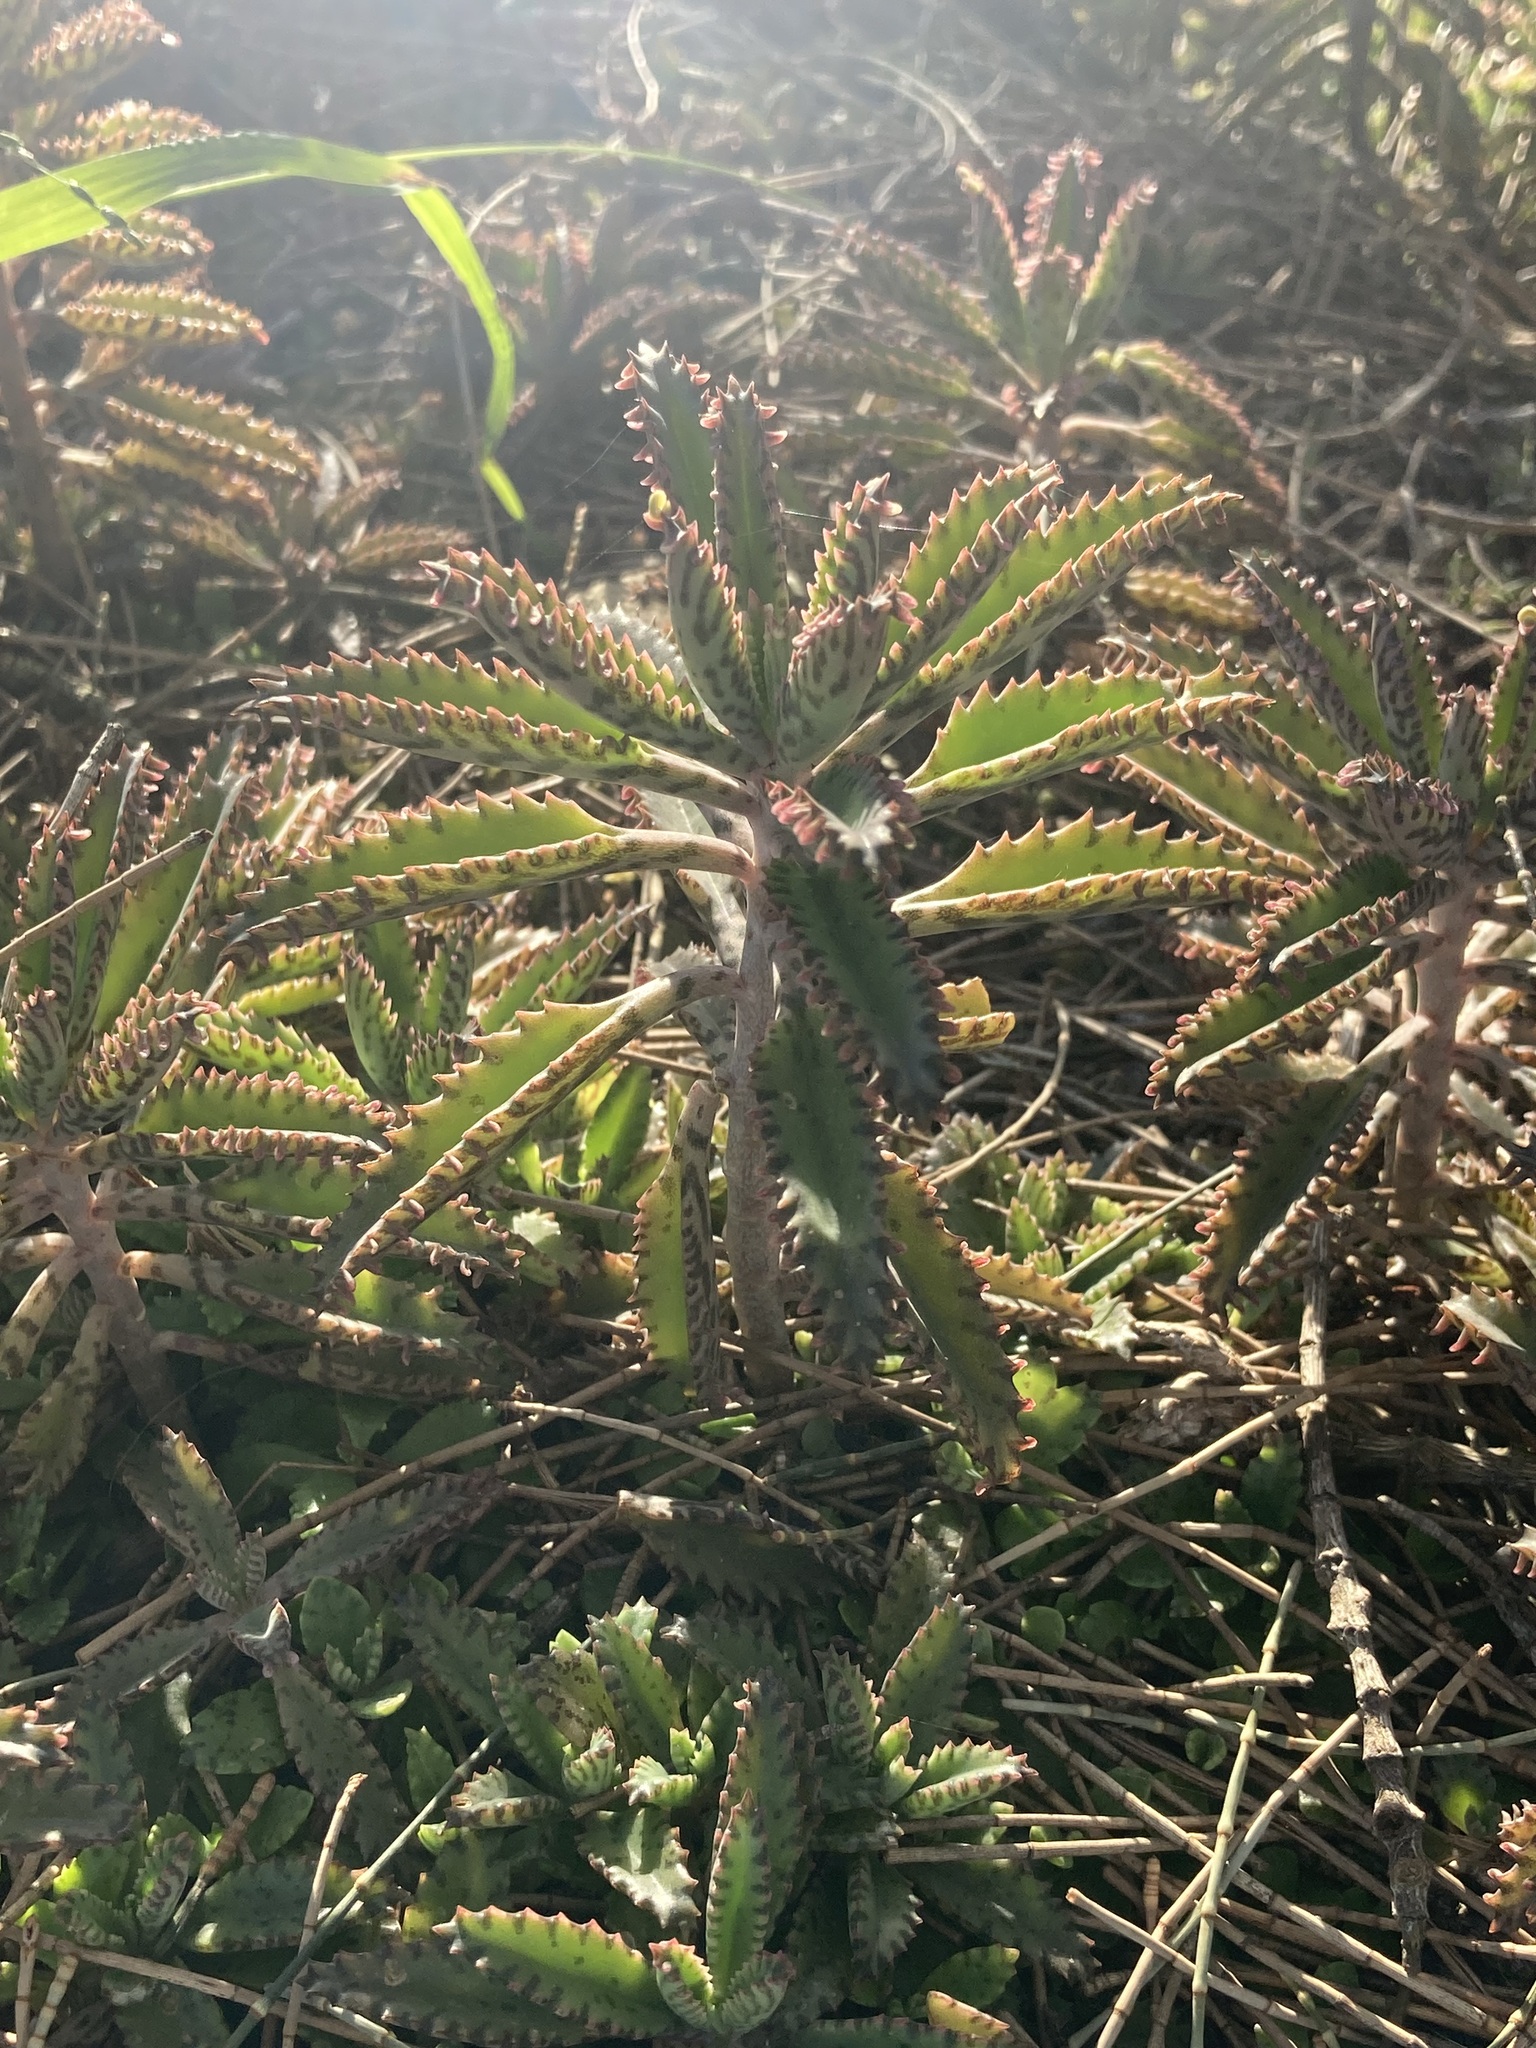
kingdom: Plantae
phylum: Tracheophyta
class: Magnoliopsida
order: Saxifragales
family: Crassulaceae
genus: Kalanchoe
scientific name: Kalanchoe houghtonii
